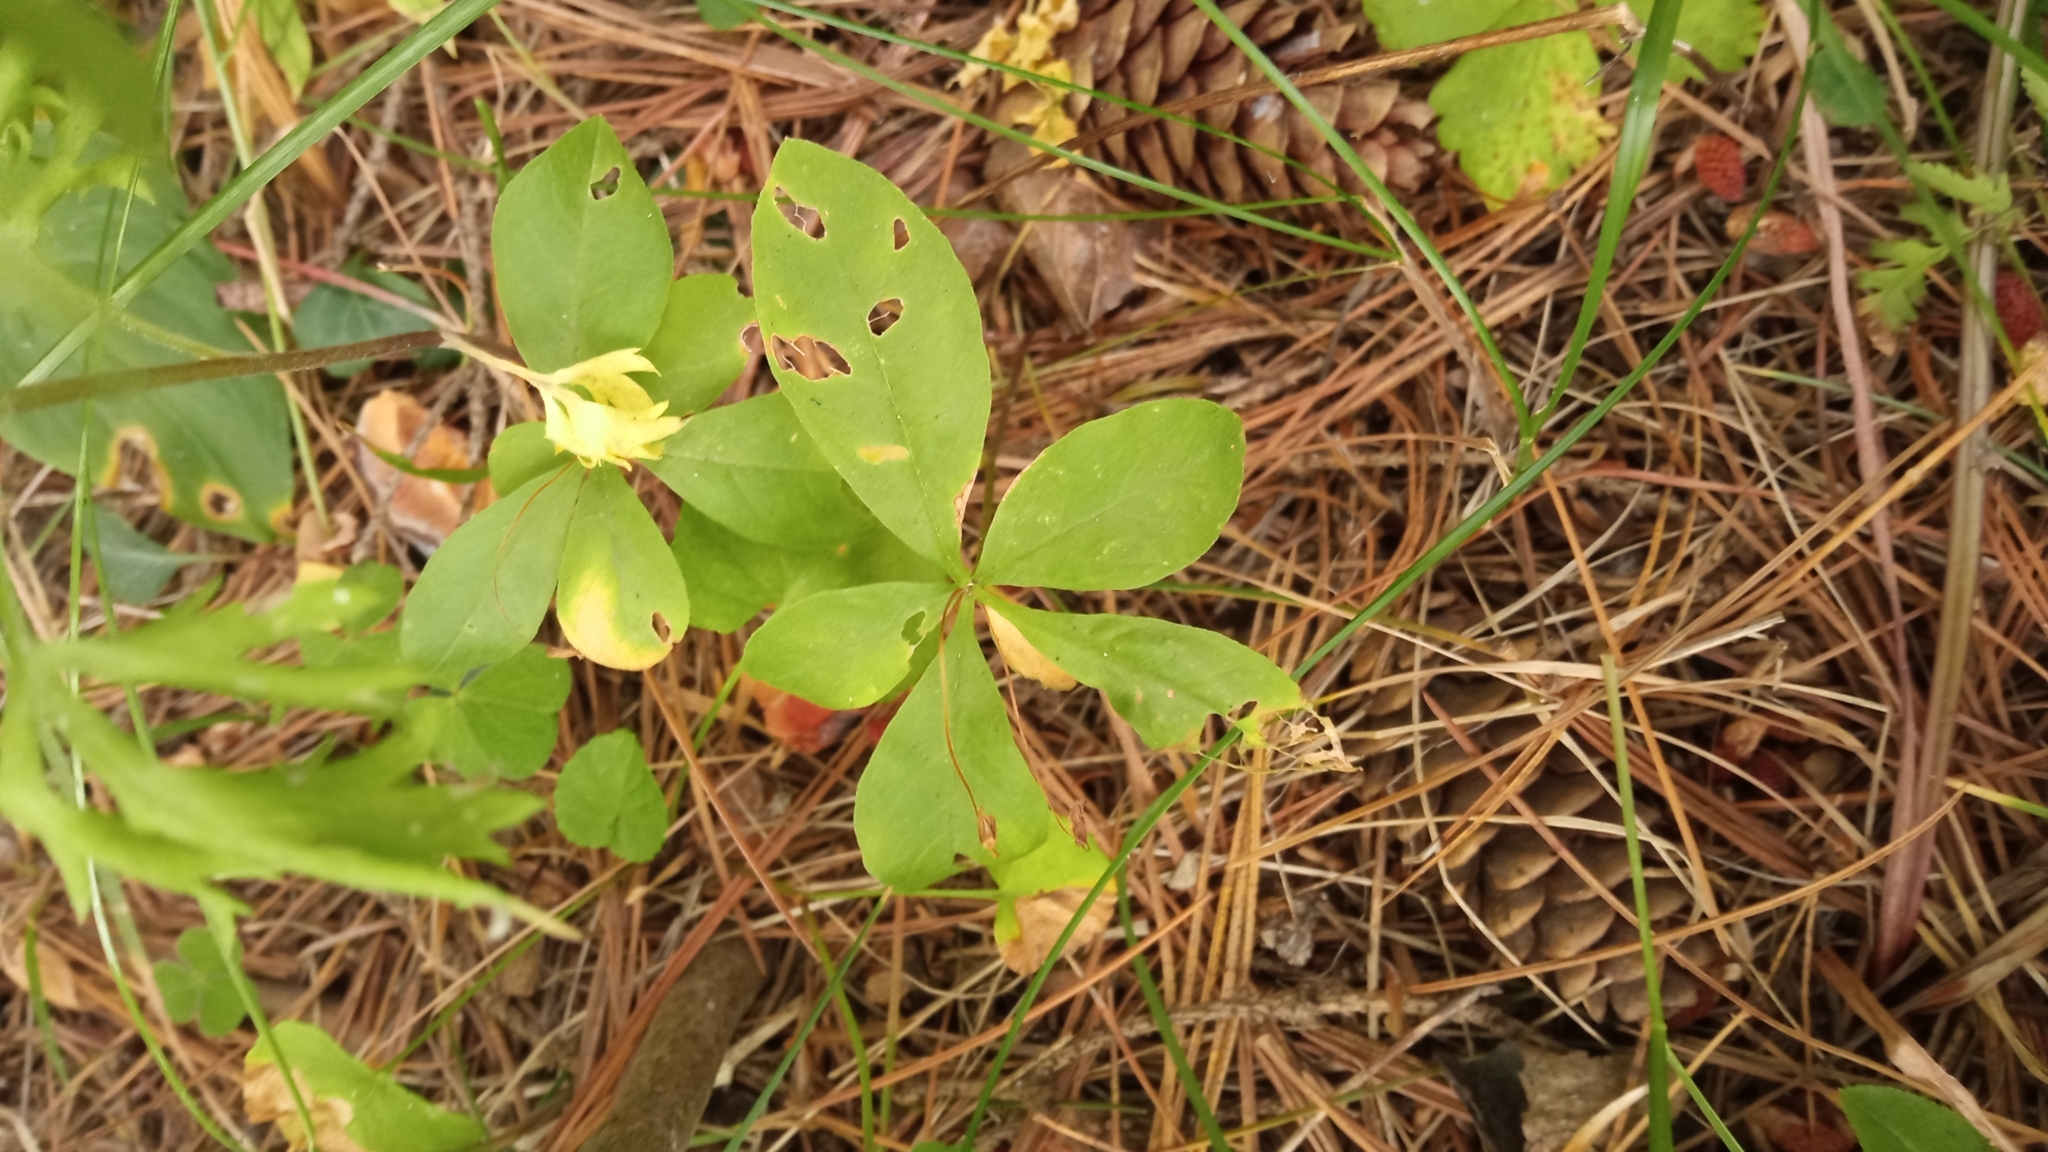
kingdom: Plantae
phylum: Tracheophyta
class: Magnoliopsida
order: Ericales
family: Primulaceae
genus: Lysimachia
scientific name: Lysimachia europaea
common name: Arctic starflower
